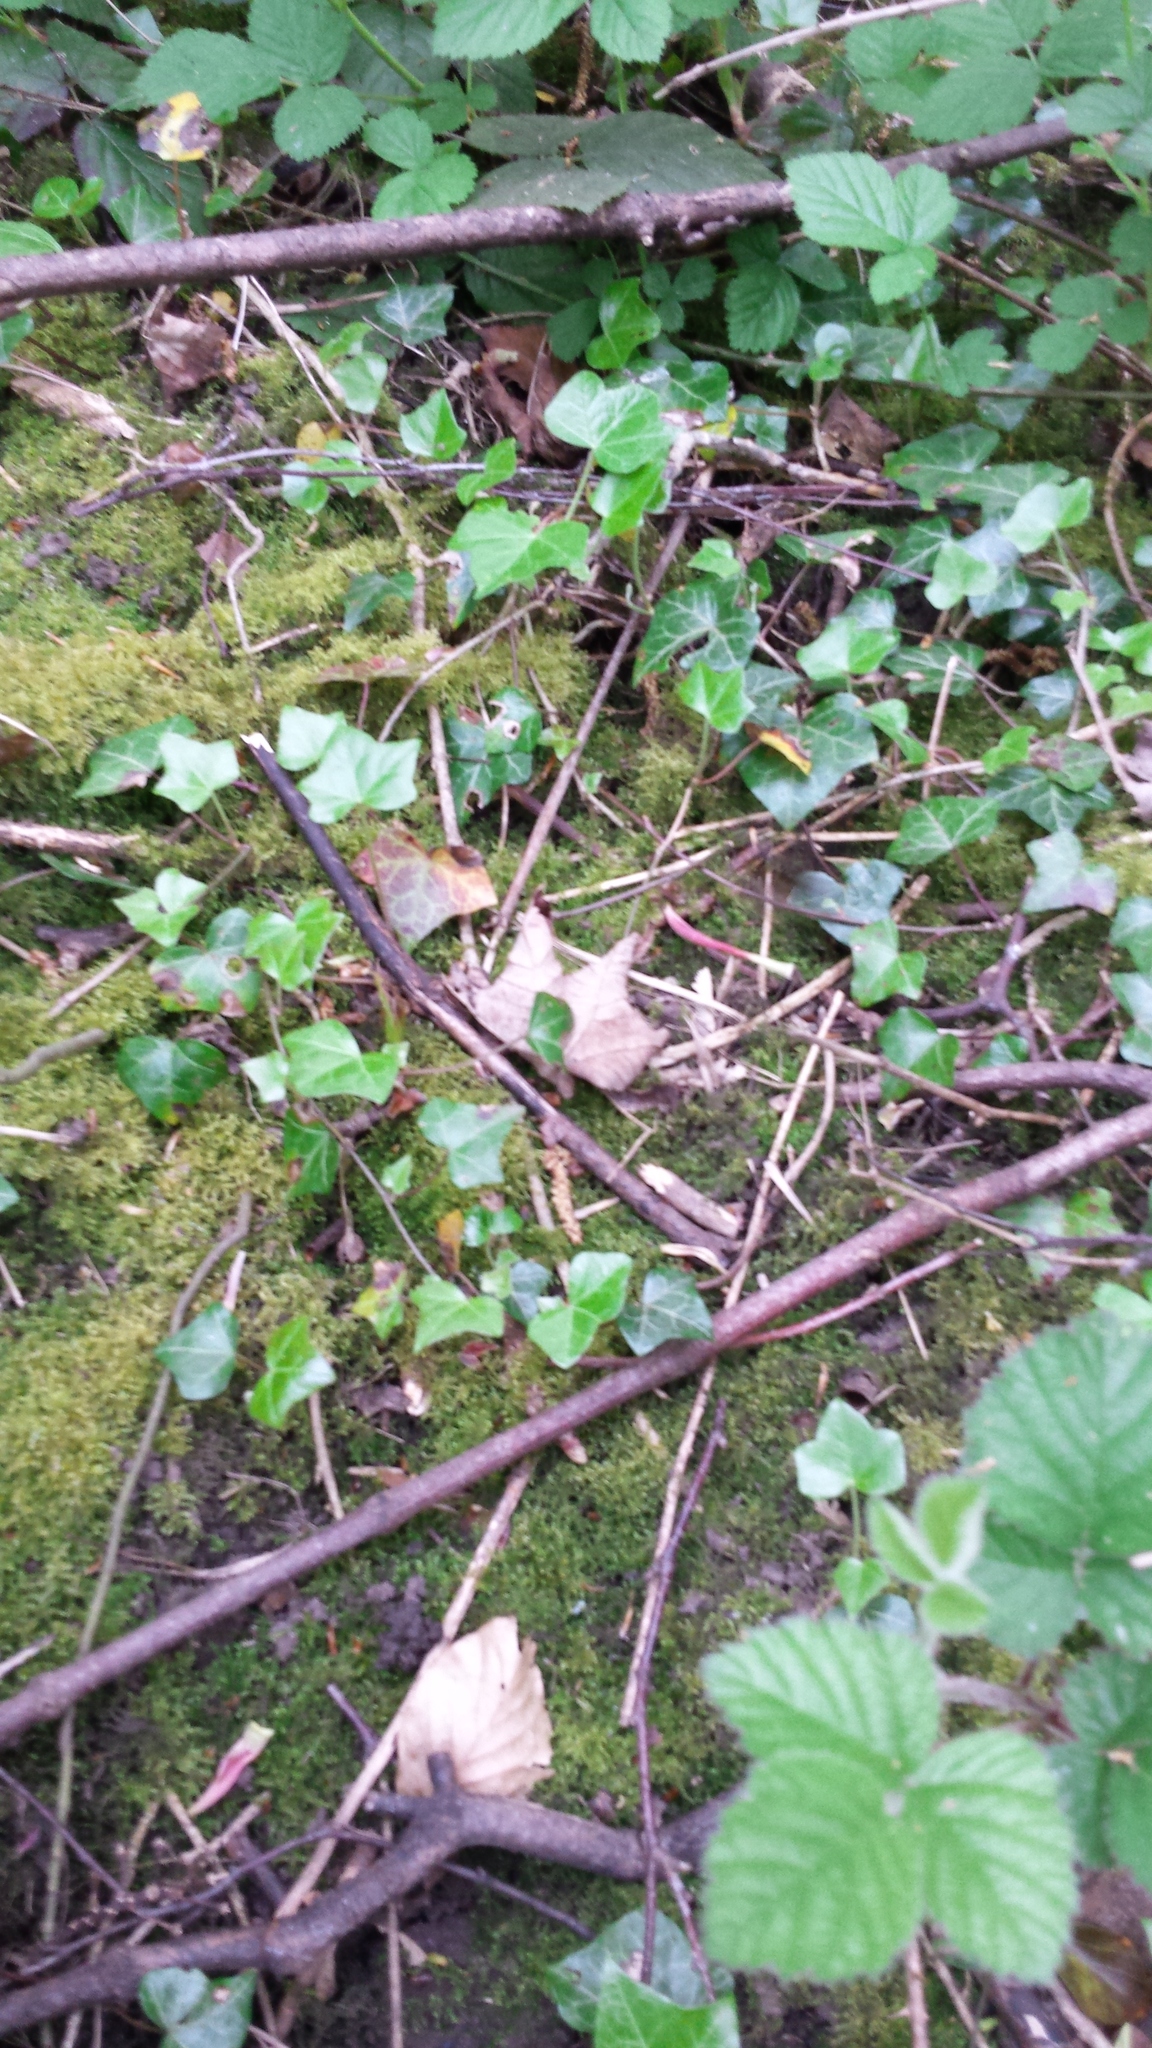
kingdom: Plantae
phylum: Tracheophyta
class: Magnoliopsida
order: Apiales
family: Araliaceae
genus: Hedera
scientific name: Hedera helix
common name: Ivy
